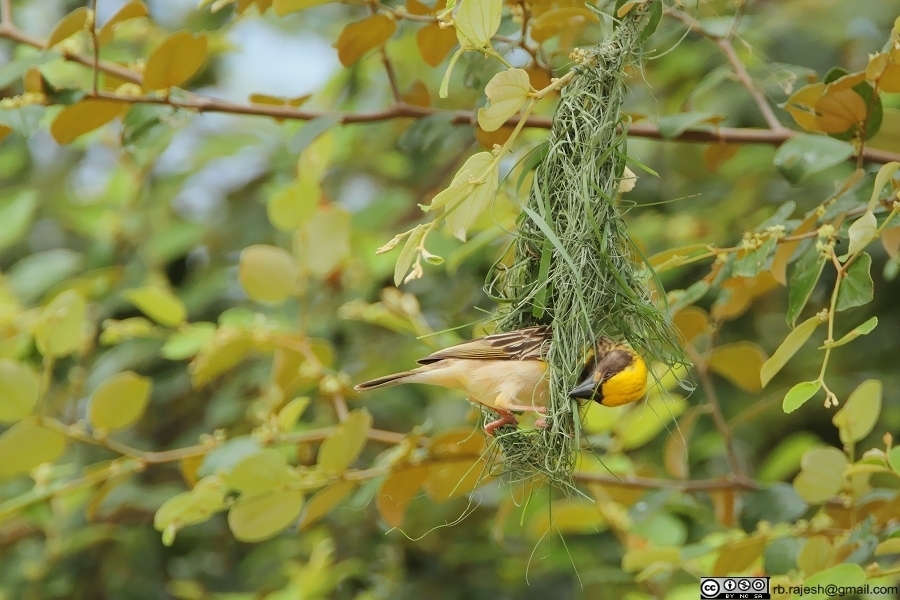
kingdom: Animalia
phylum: Chordata
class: Aves
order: Passeriformes
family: Ploceidae
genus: Ploceus
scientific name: Ploceus philippinus
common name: Baya weaver
